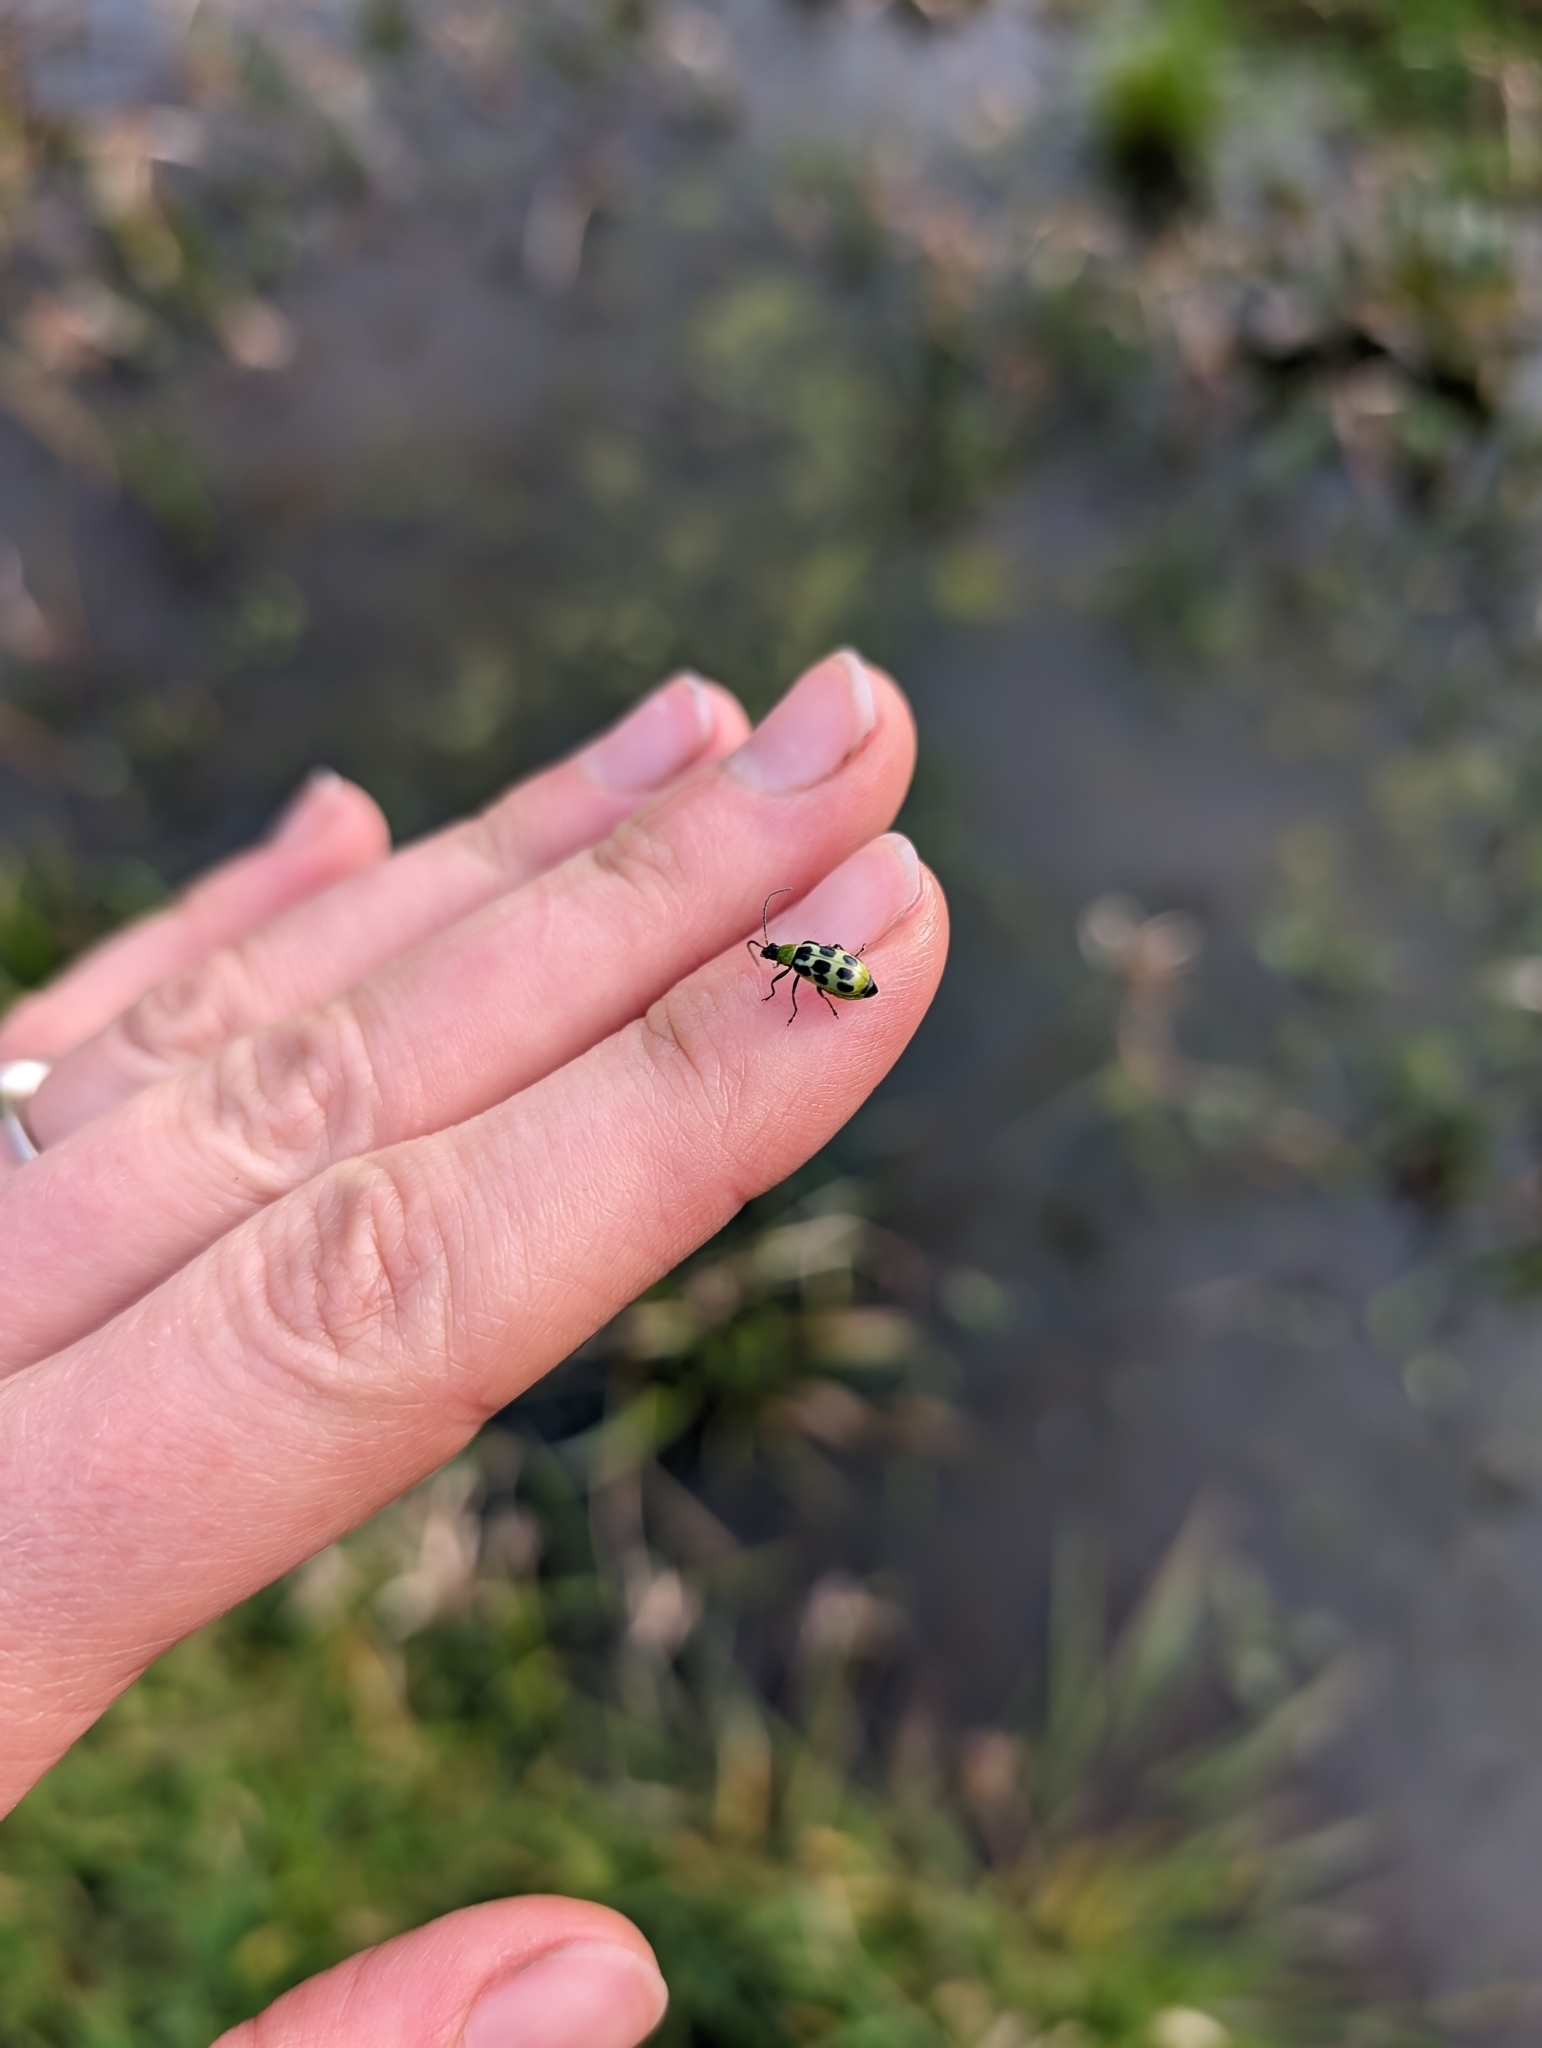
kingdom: Animalia
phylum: Arthropoda
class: Insecta
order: Coleoptera
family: Chrysomelidae
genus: Diabrotica
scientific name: Diabrotica undecimpunctata
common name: Spotted cucumber beetle
